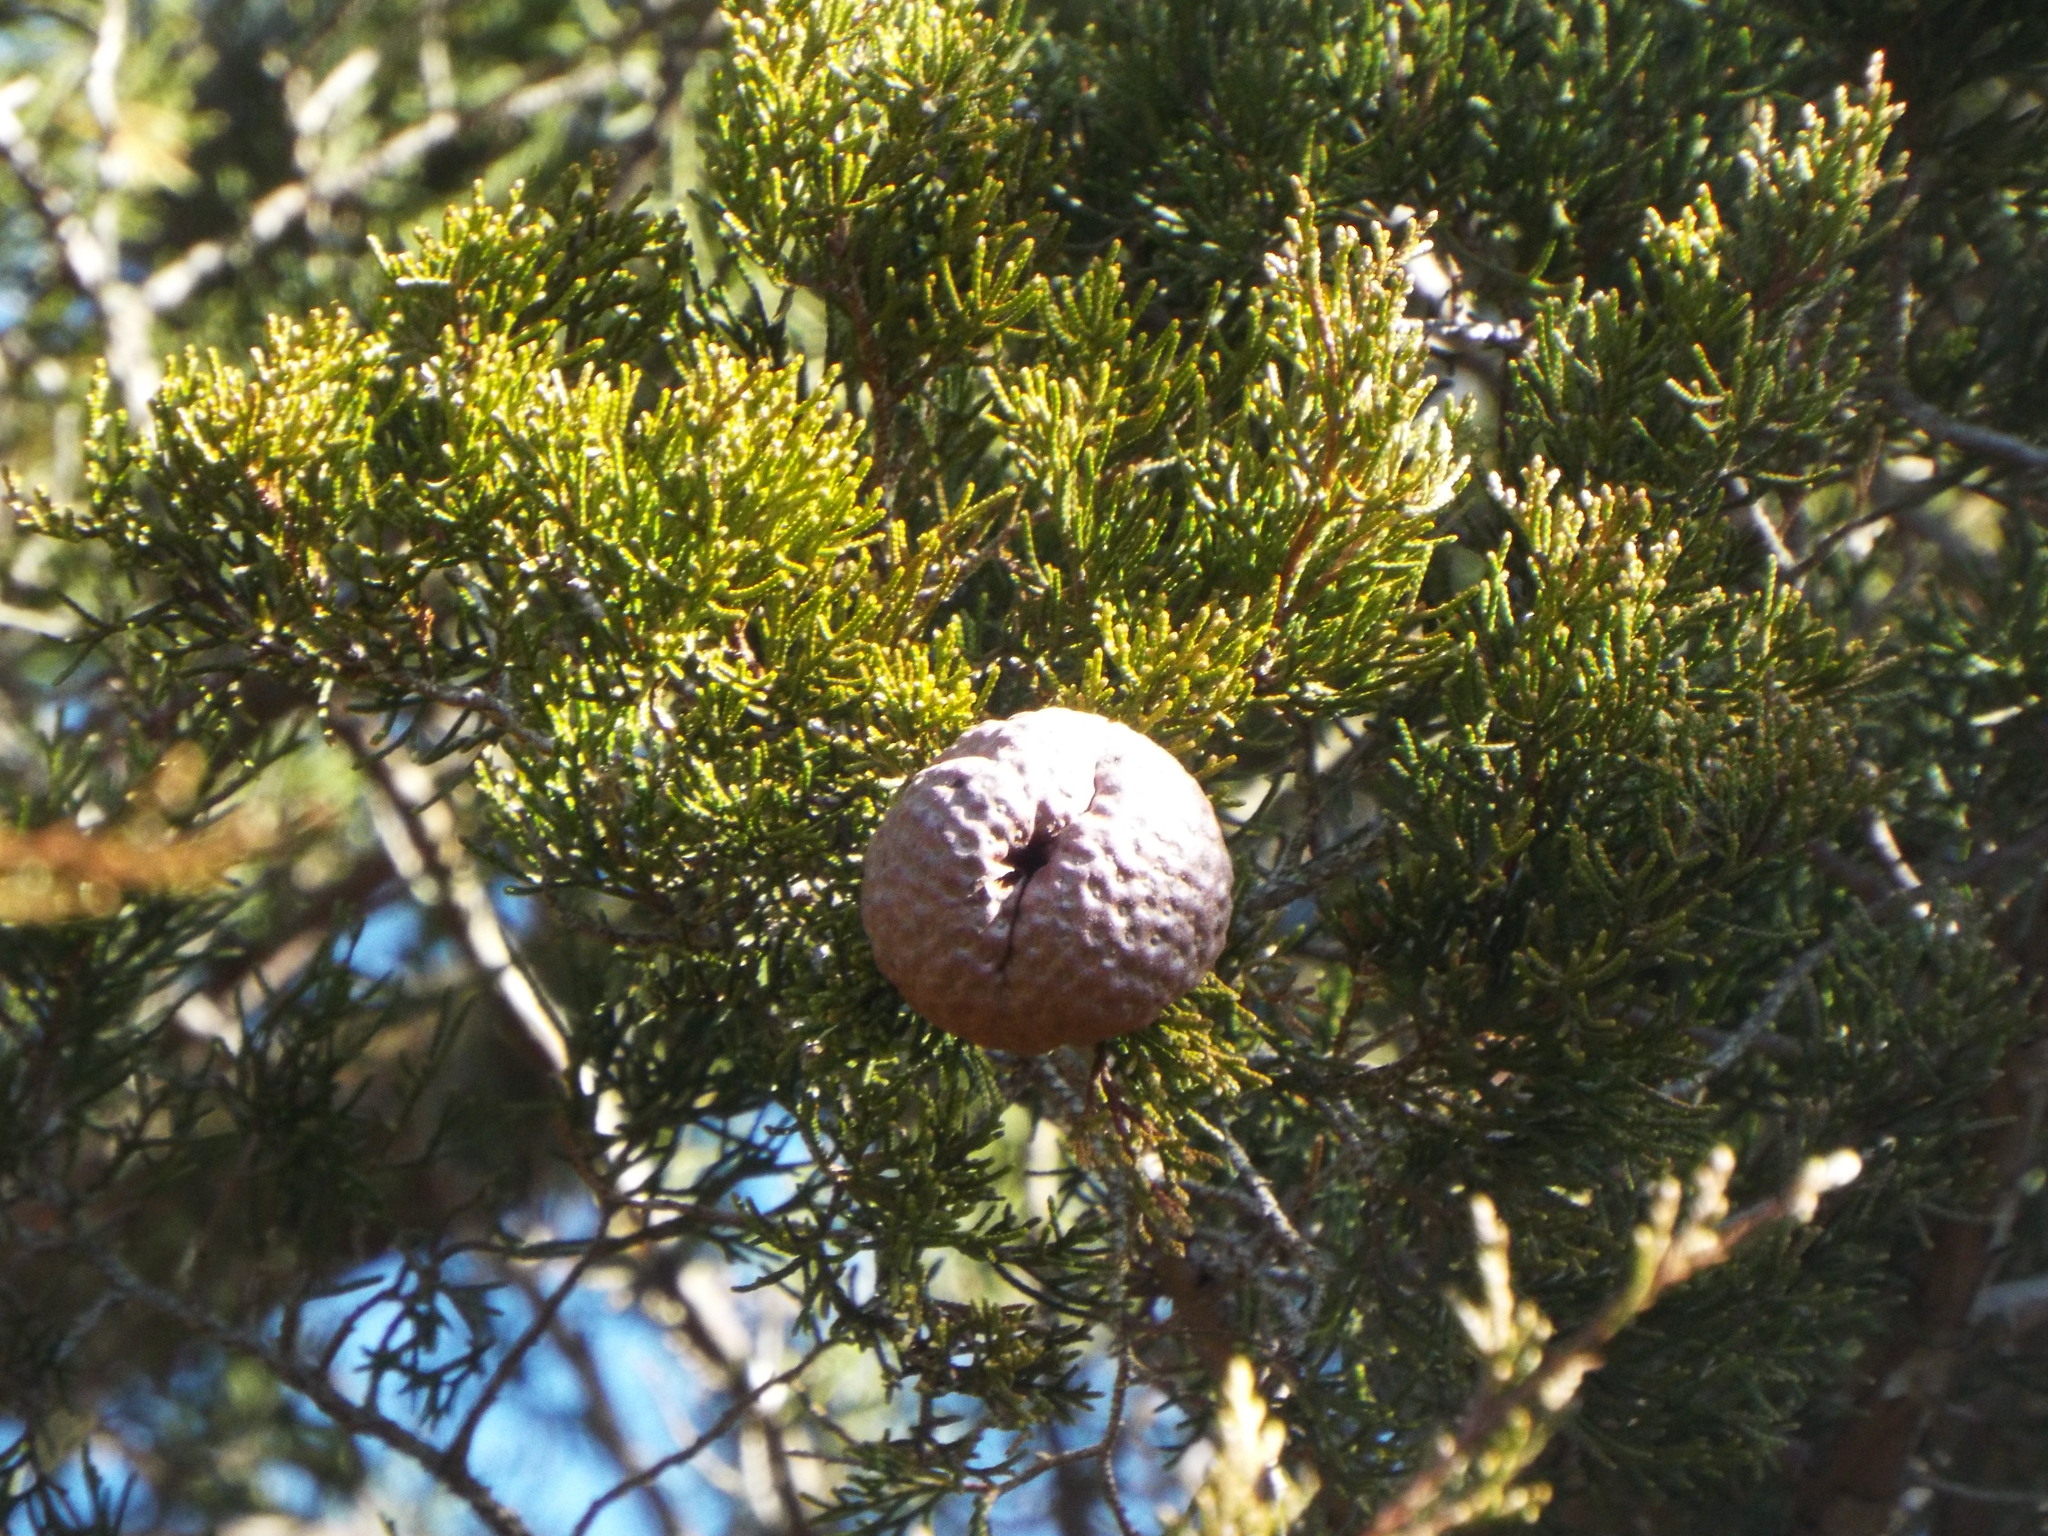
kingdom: Fungi
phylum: Basidiomycota
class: Pucciniomycetes
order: Pucciniales
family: Gymnosporangiaceae
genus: Gymnosporangium
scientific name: Gymnosporangium juniperi-virginianae
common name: Juniper-apple rust
